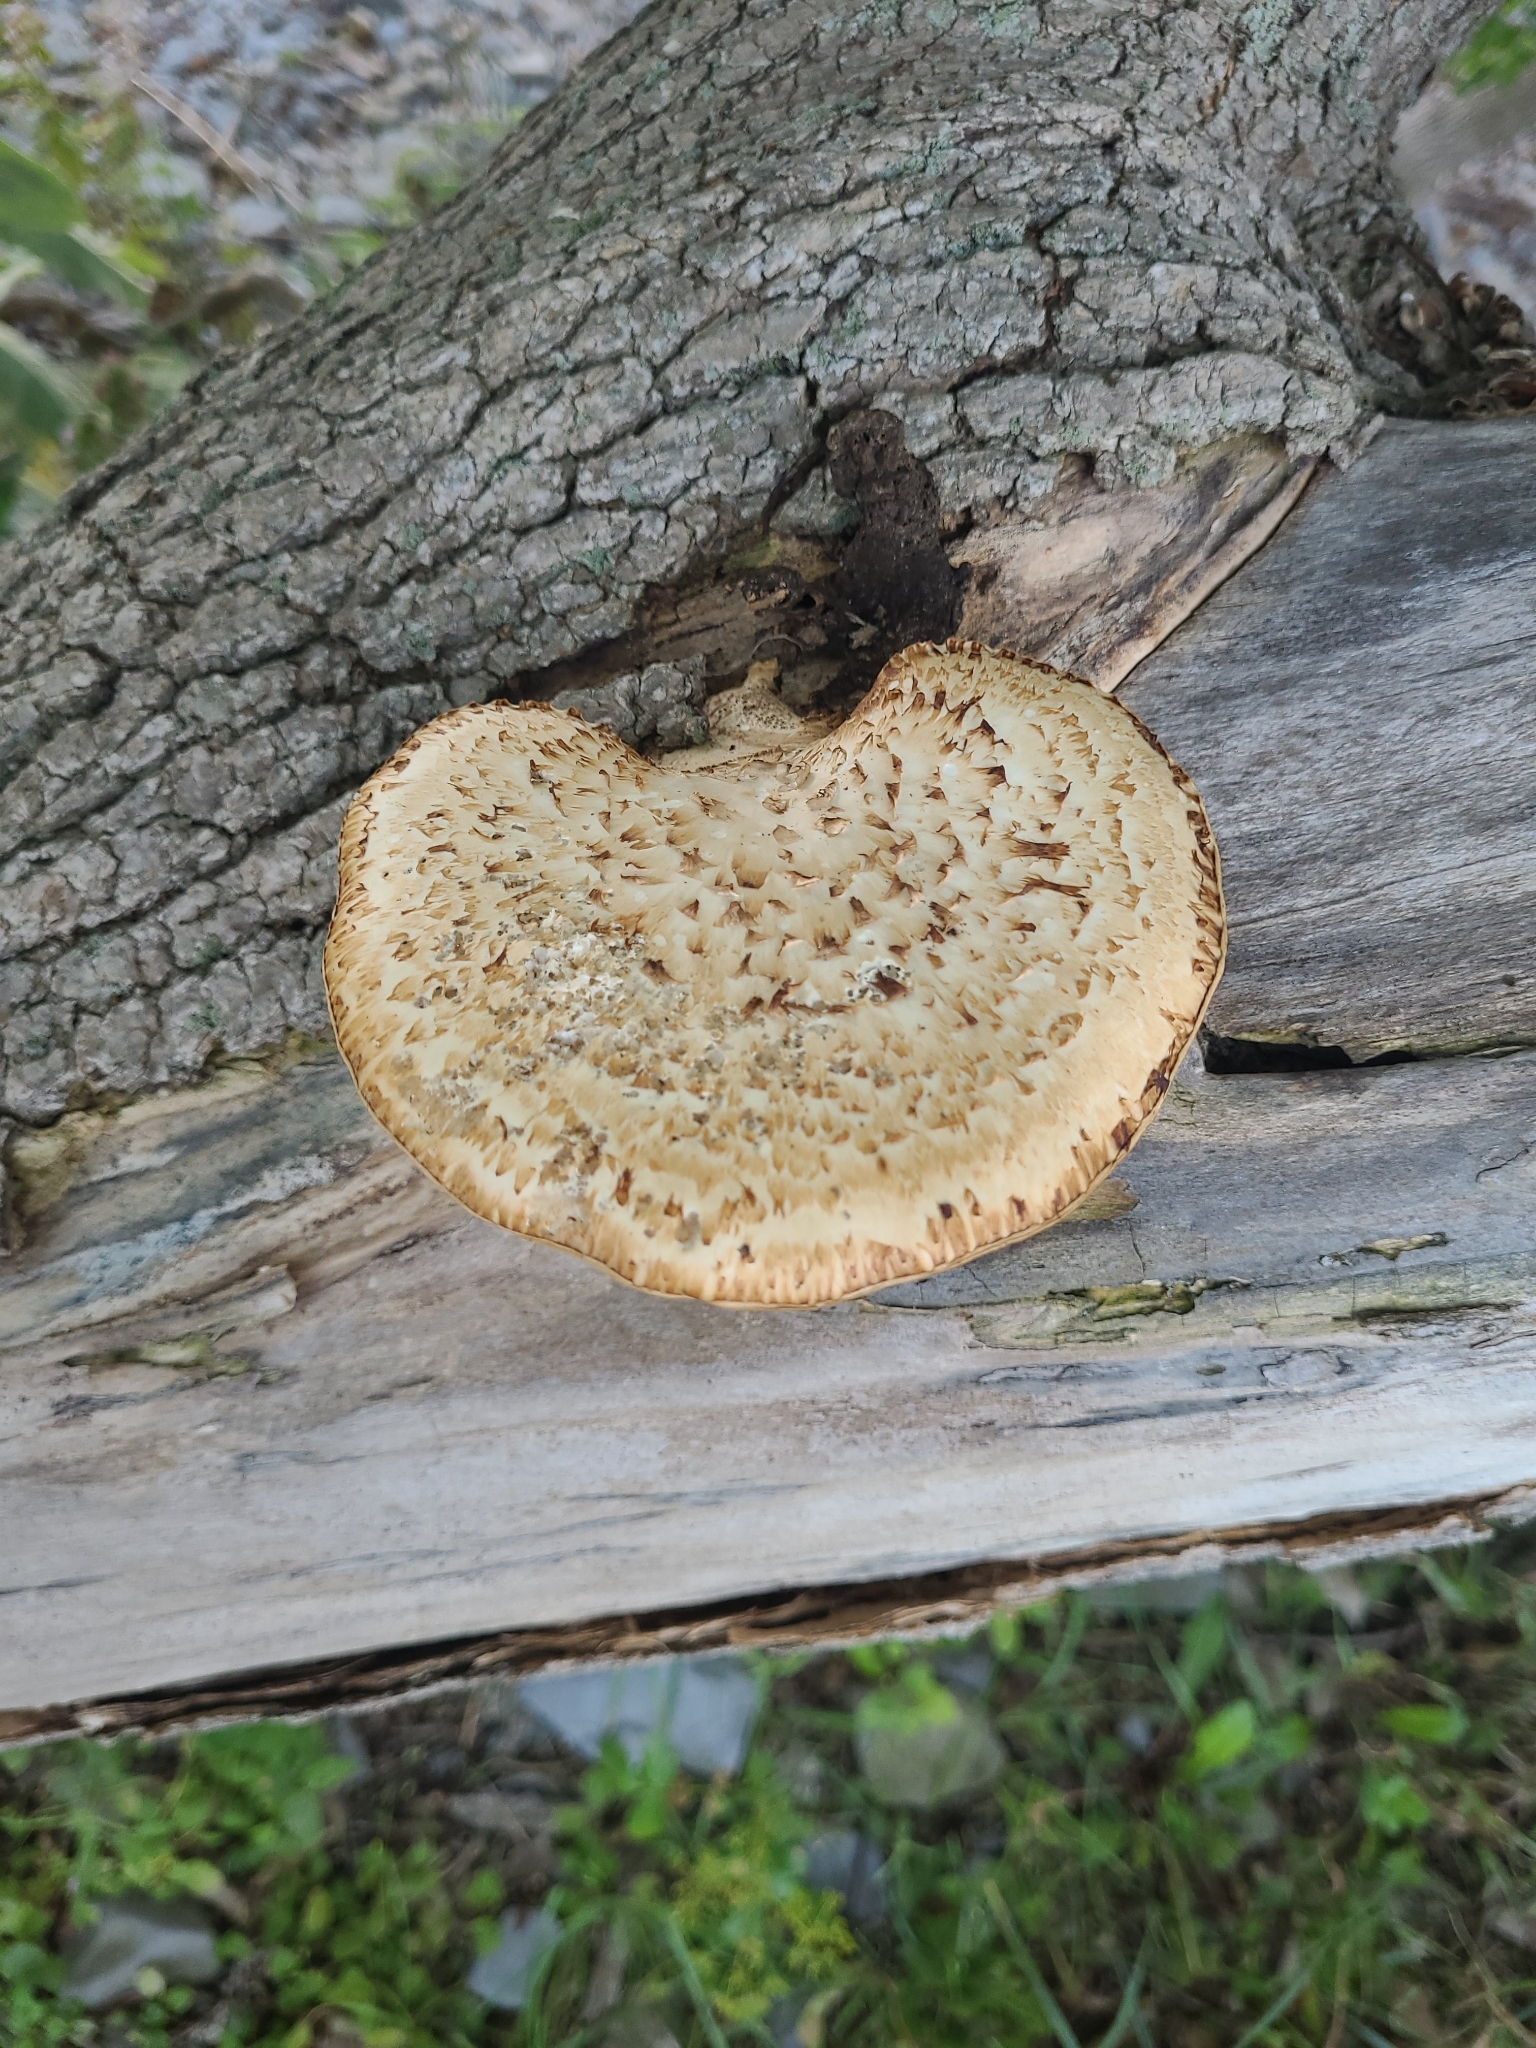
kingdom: Fungi
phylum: Basidiomycota
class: Agaricomycetes
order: Polyporales
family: Polyporaceae
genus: Cerioporus
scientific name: Cerioporus squamosus
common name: Dryad's saddle
